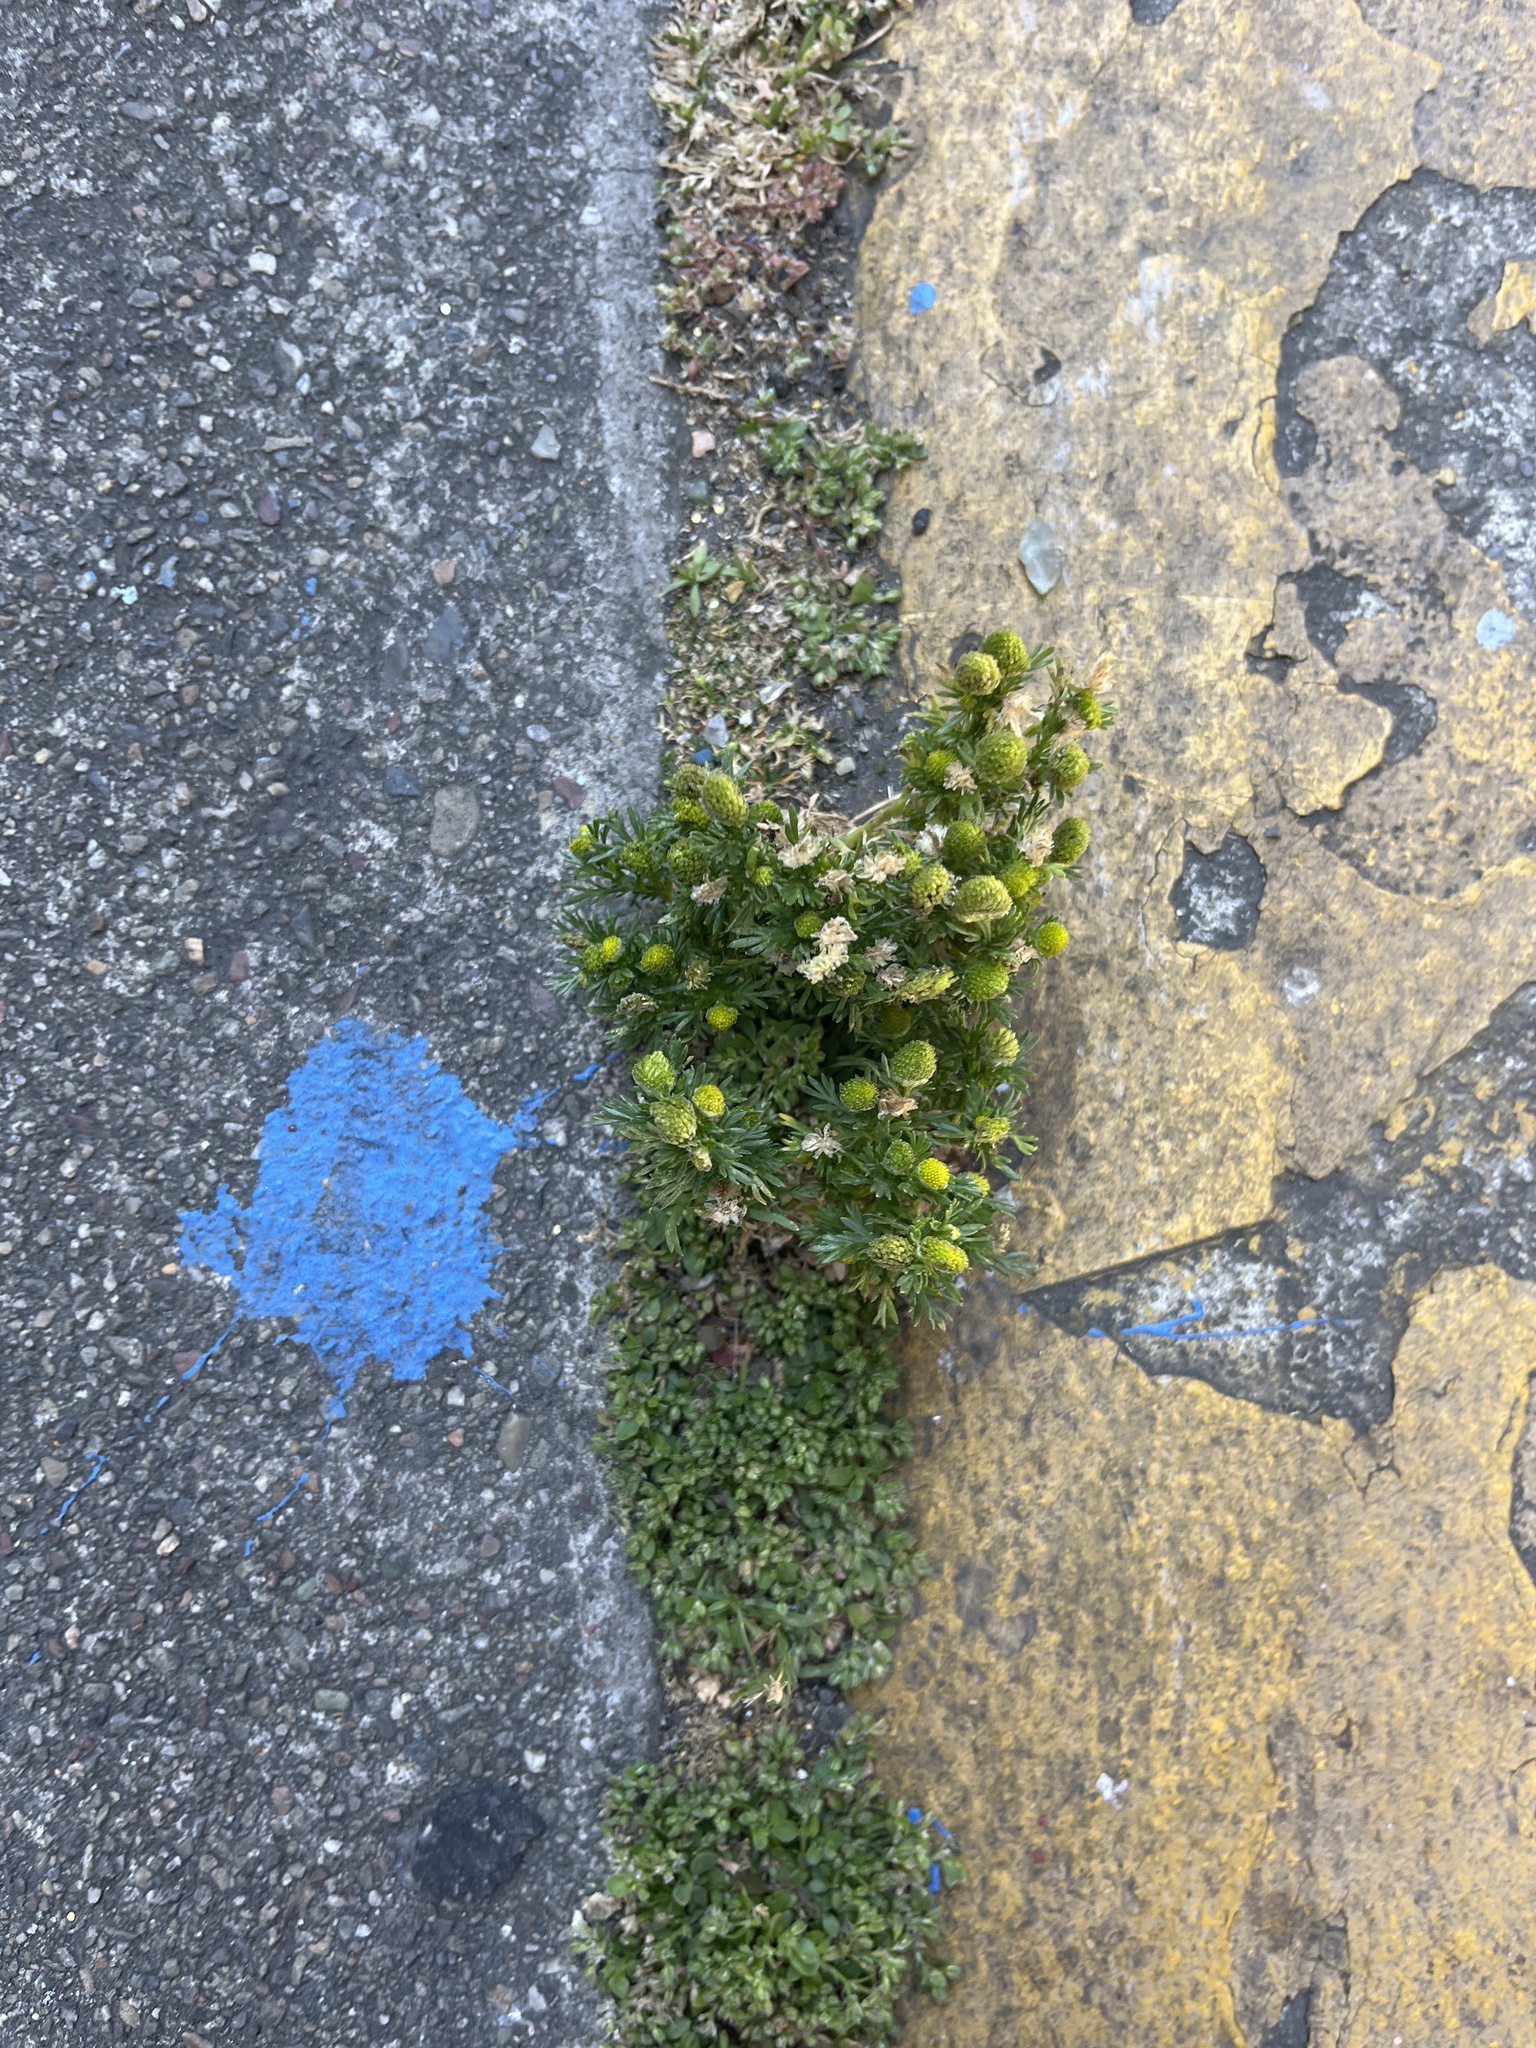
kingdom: Plantae
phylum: Tracheophyta
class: Magnoliopsida
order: Asterales
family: Asteraceae
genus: Matricaria
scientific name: Matricaria discoidea
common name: Disc mayweed
